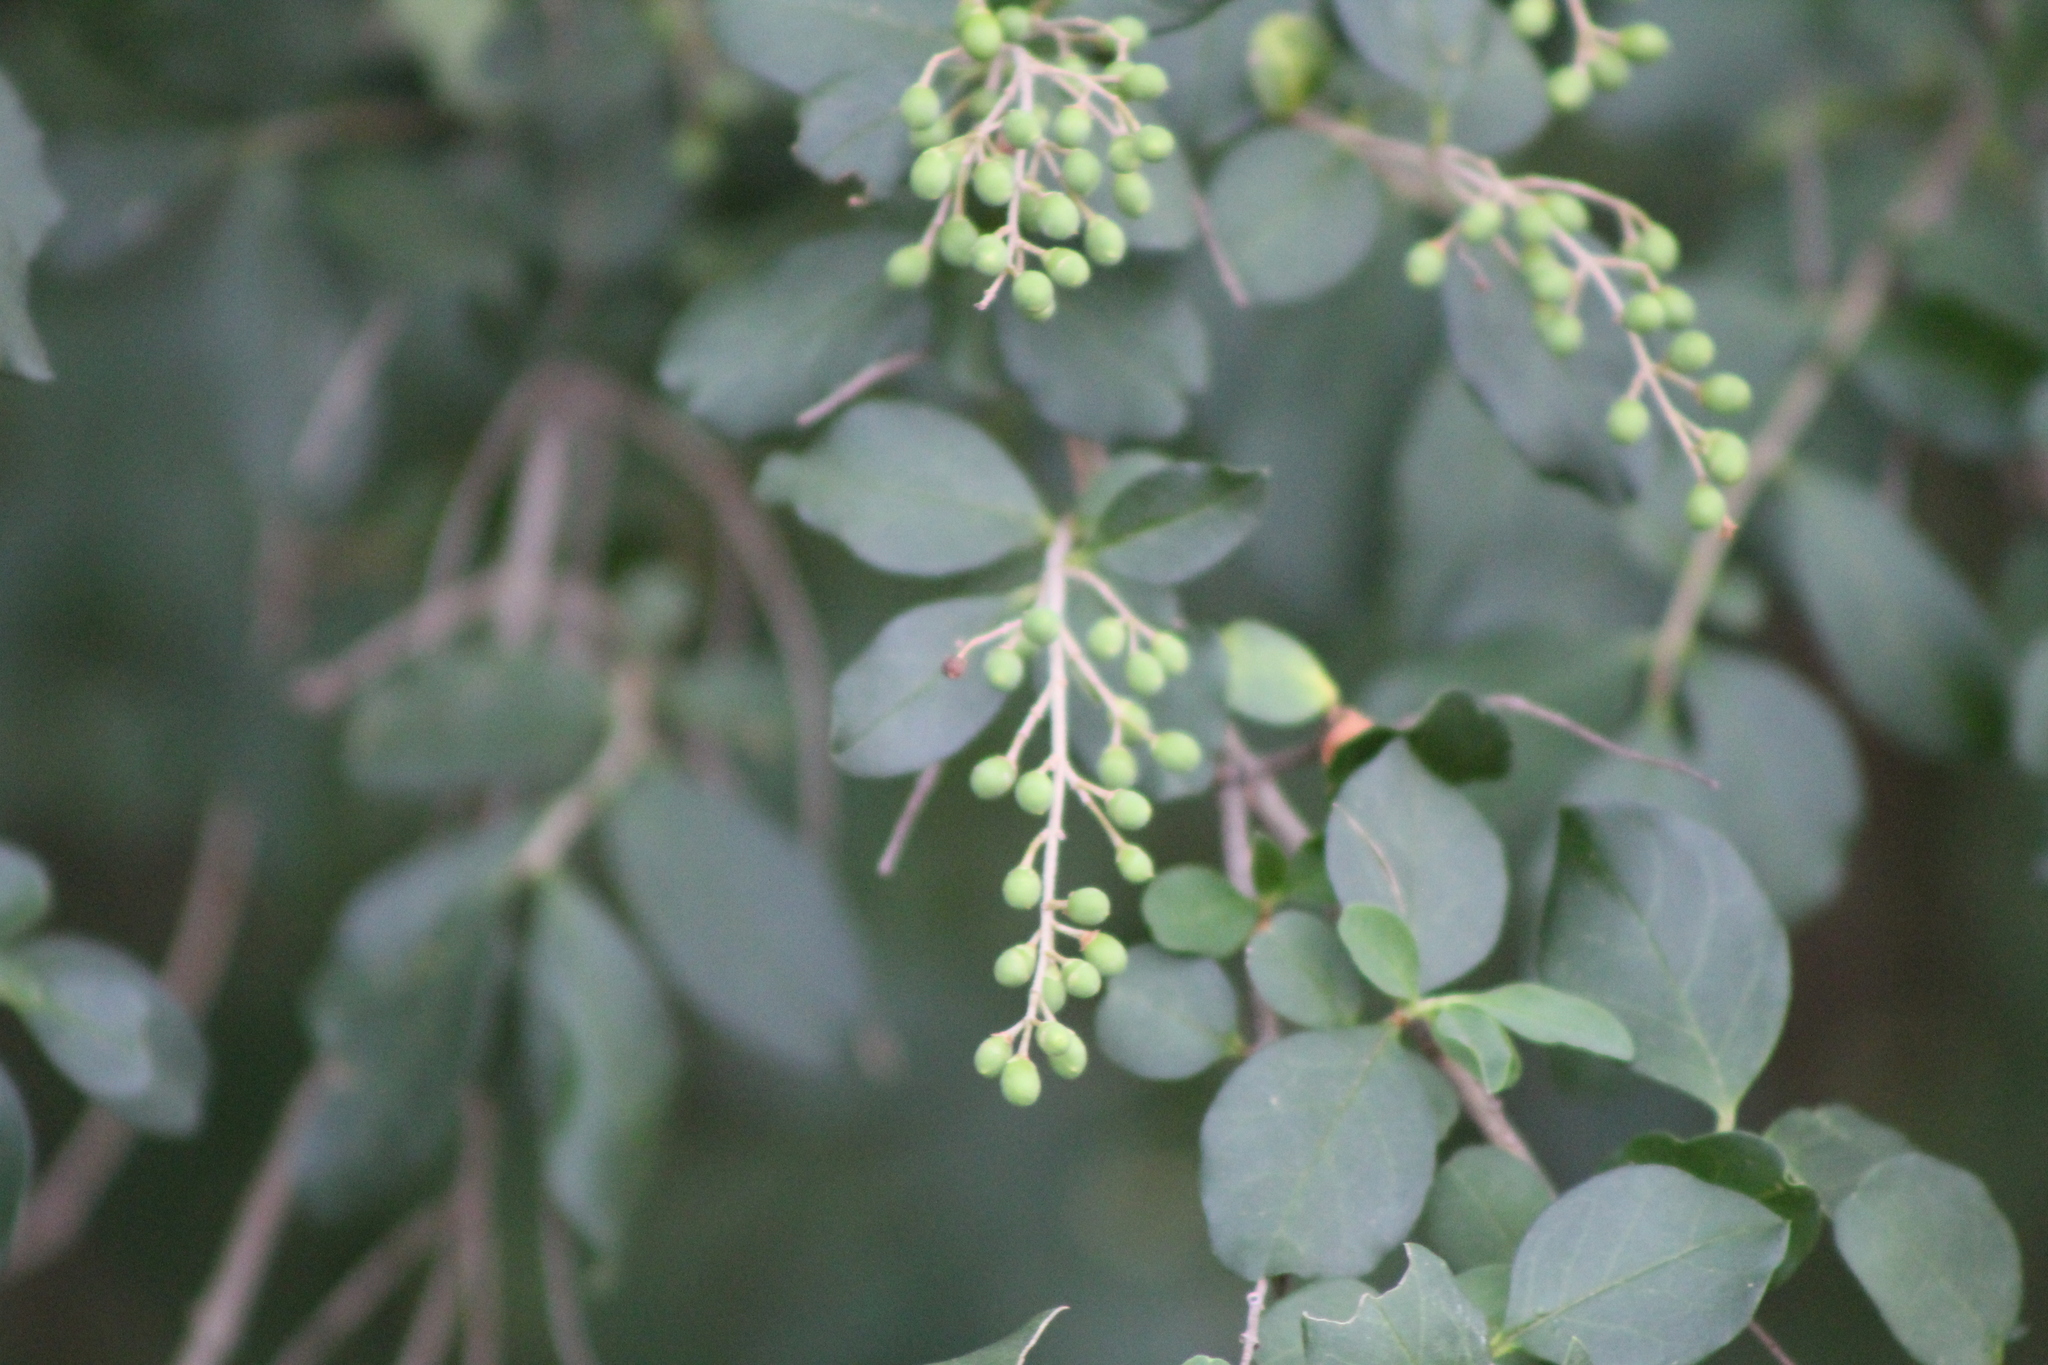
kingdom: Plantae
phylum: Tracheophyta
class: Magnoliopsida
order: Lamiales
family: Oleaceae
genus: Ligustrum
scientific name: Ligustrum sinense
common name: Chinese privet
